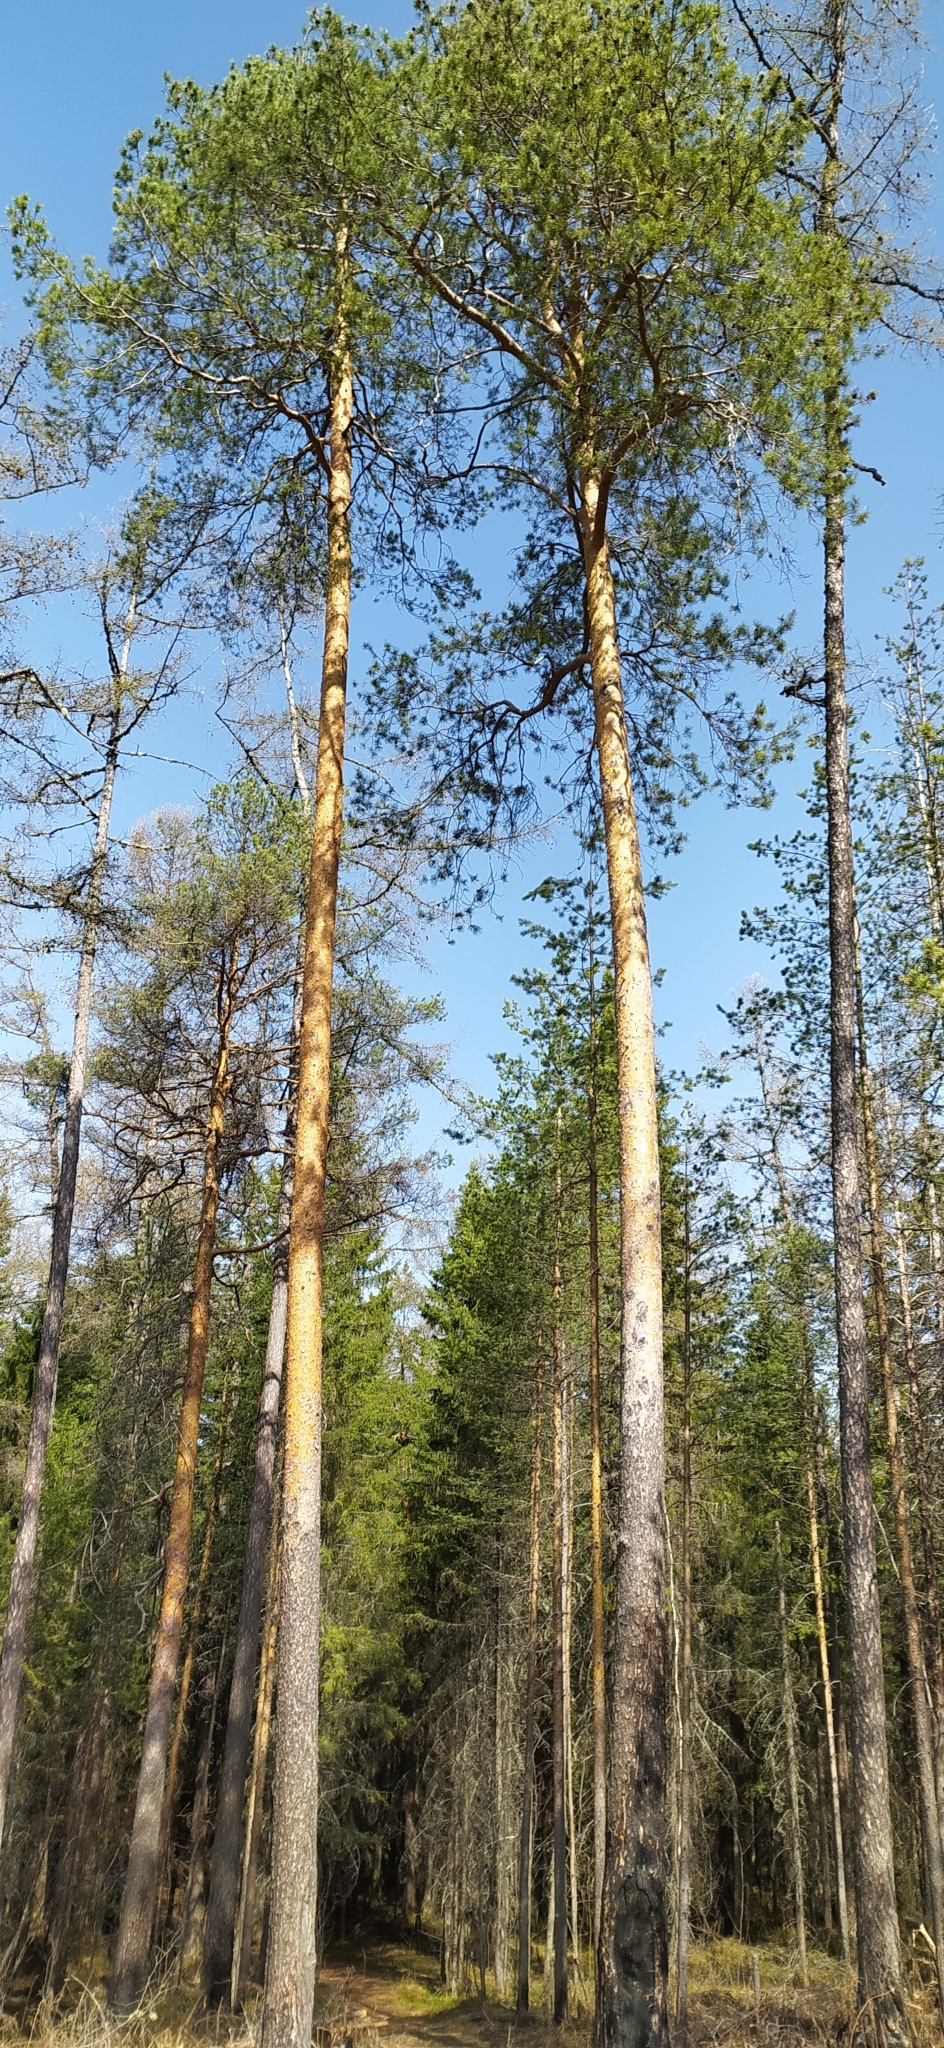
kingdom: Plantae
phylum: Tracheophyta
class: Pinopsida
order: Pinales
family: Pinaceae
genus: Pinus
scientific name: Pinus sylvestris
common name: Scots pine
